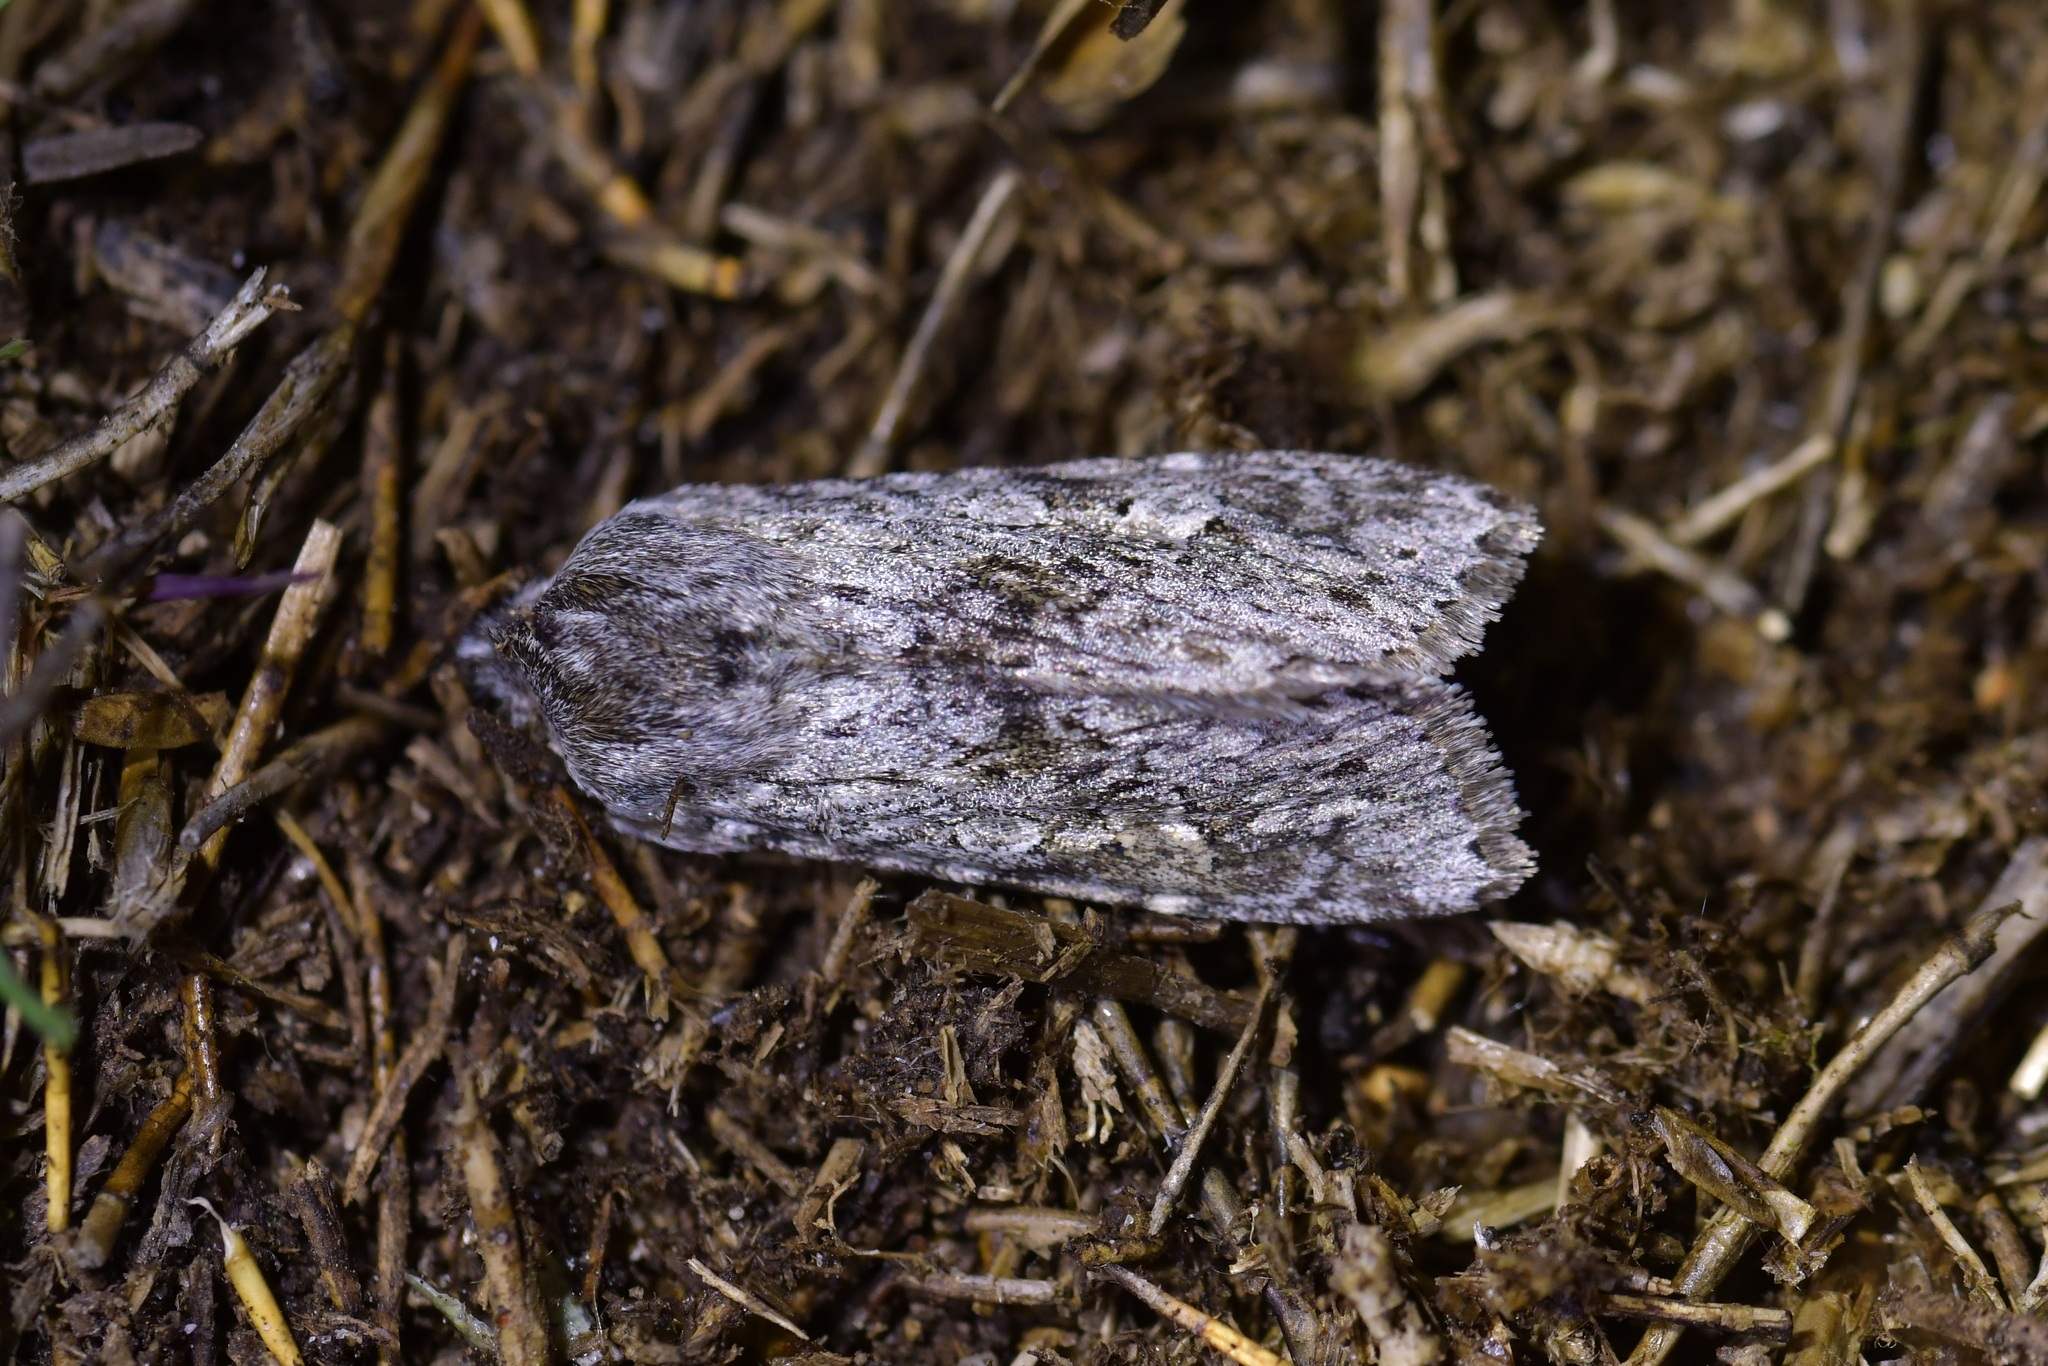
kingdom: Animalia
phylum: Arthropoda
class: Insecta
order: Lepidoptera
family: Noctuidae
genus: Physetica
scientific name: Physetica cucullina
